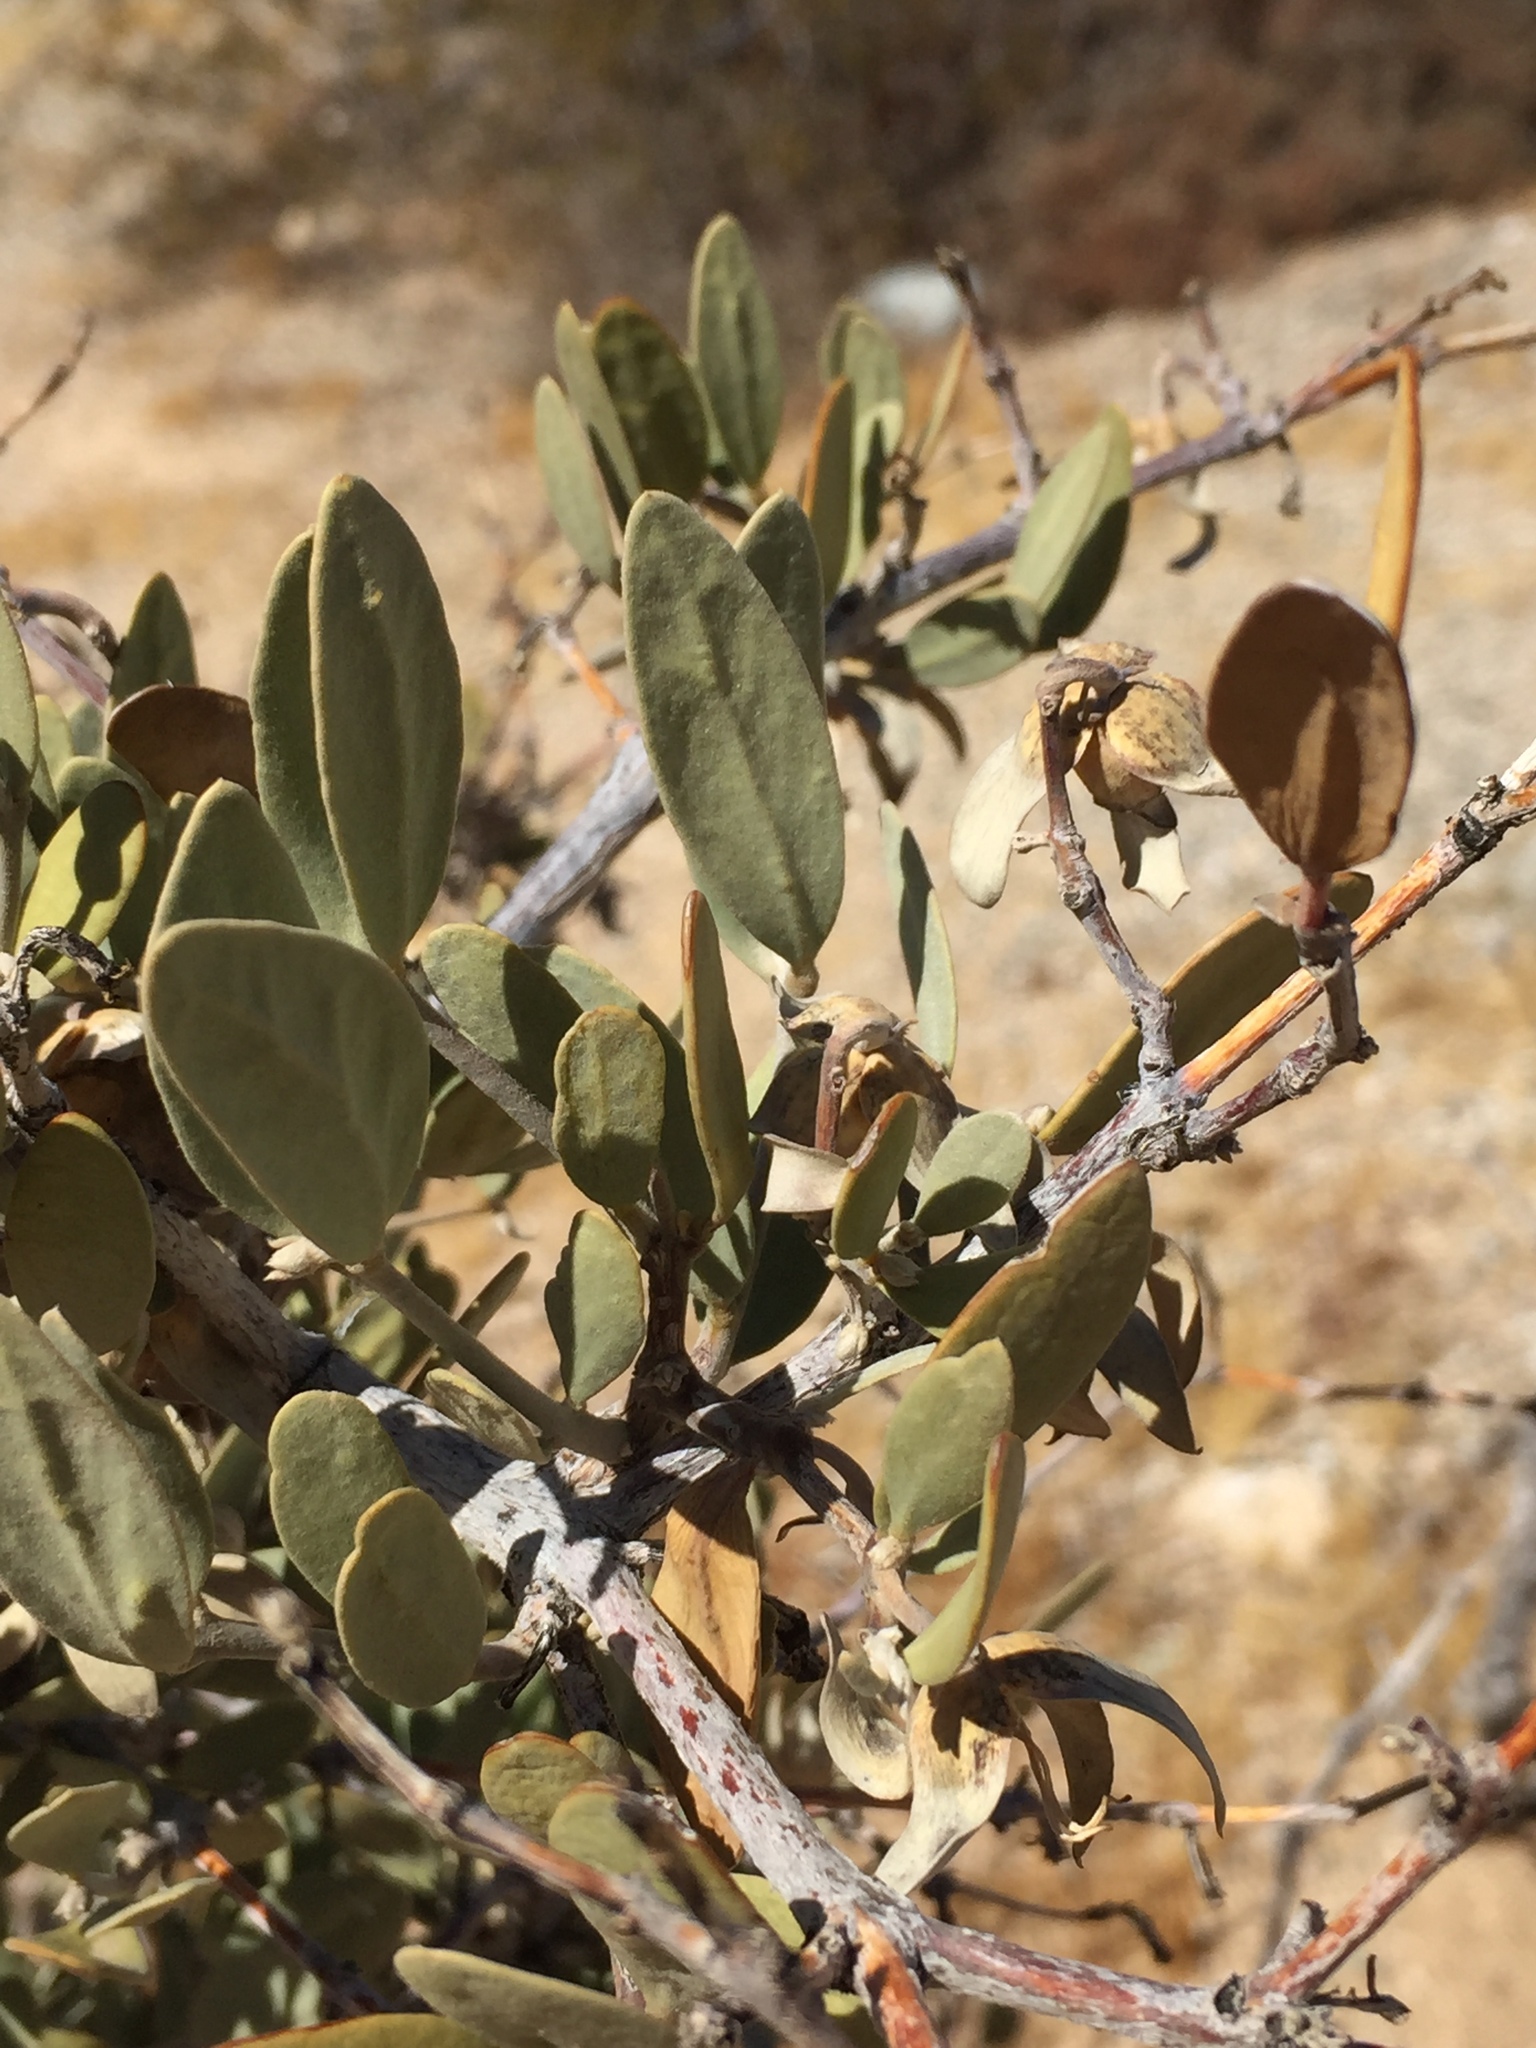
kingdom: Plantae
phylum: Tracheophyta
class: Magnoliopsida
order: Caryophyllales
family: Simmondsiaceae
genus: Simmondsia
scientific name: Simmondsia chinensis
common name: Jojoba
